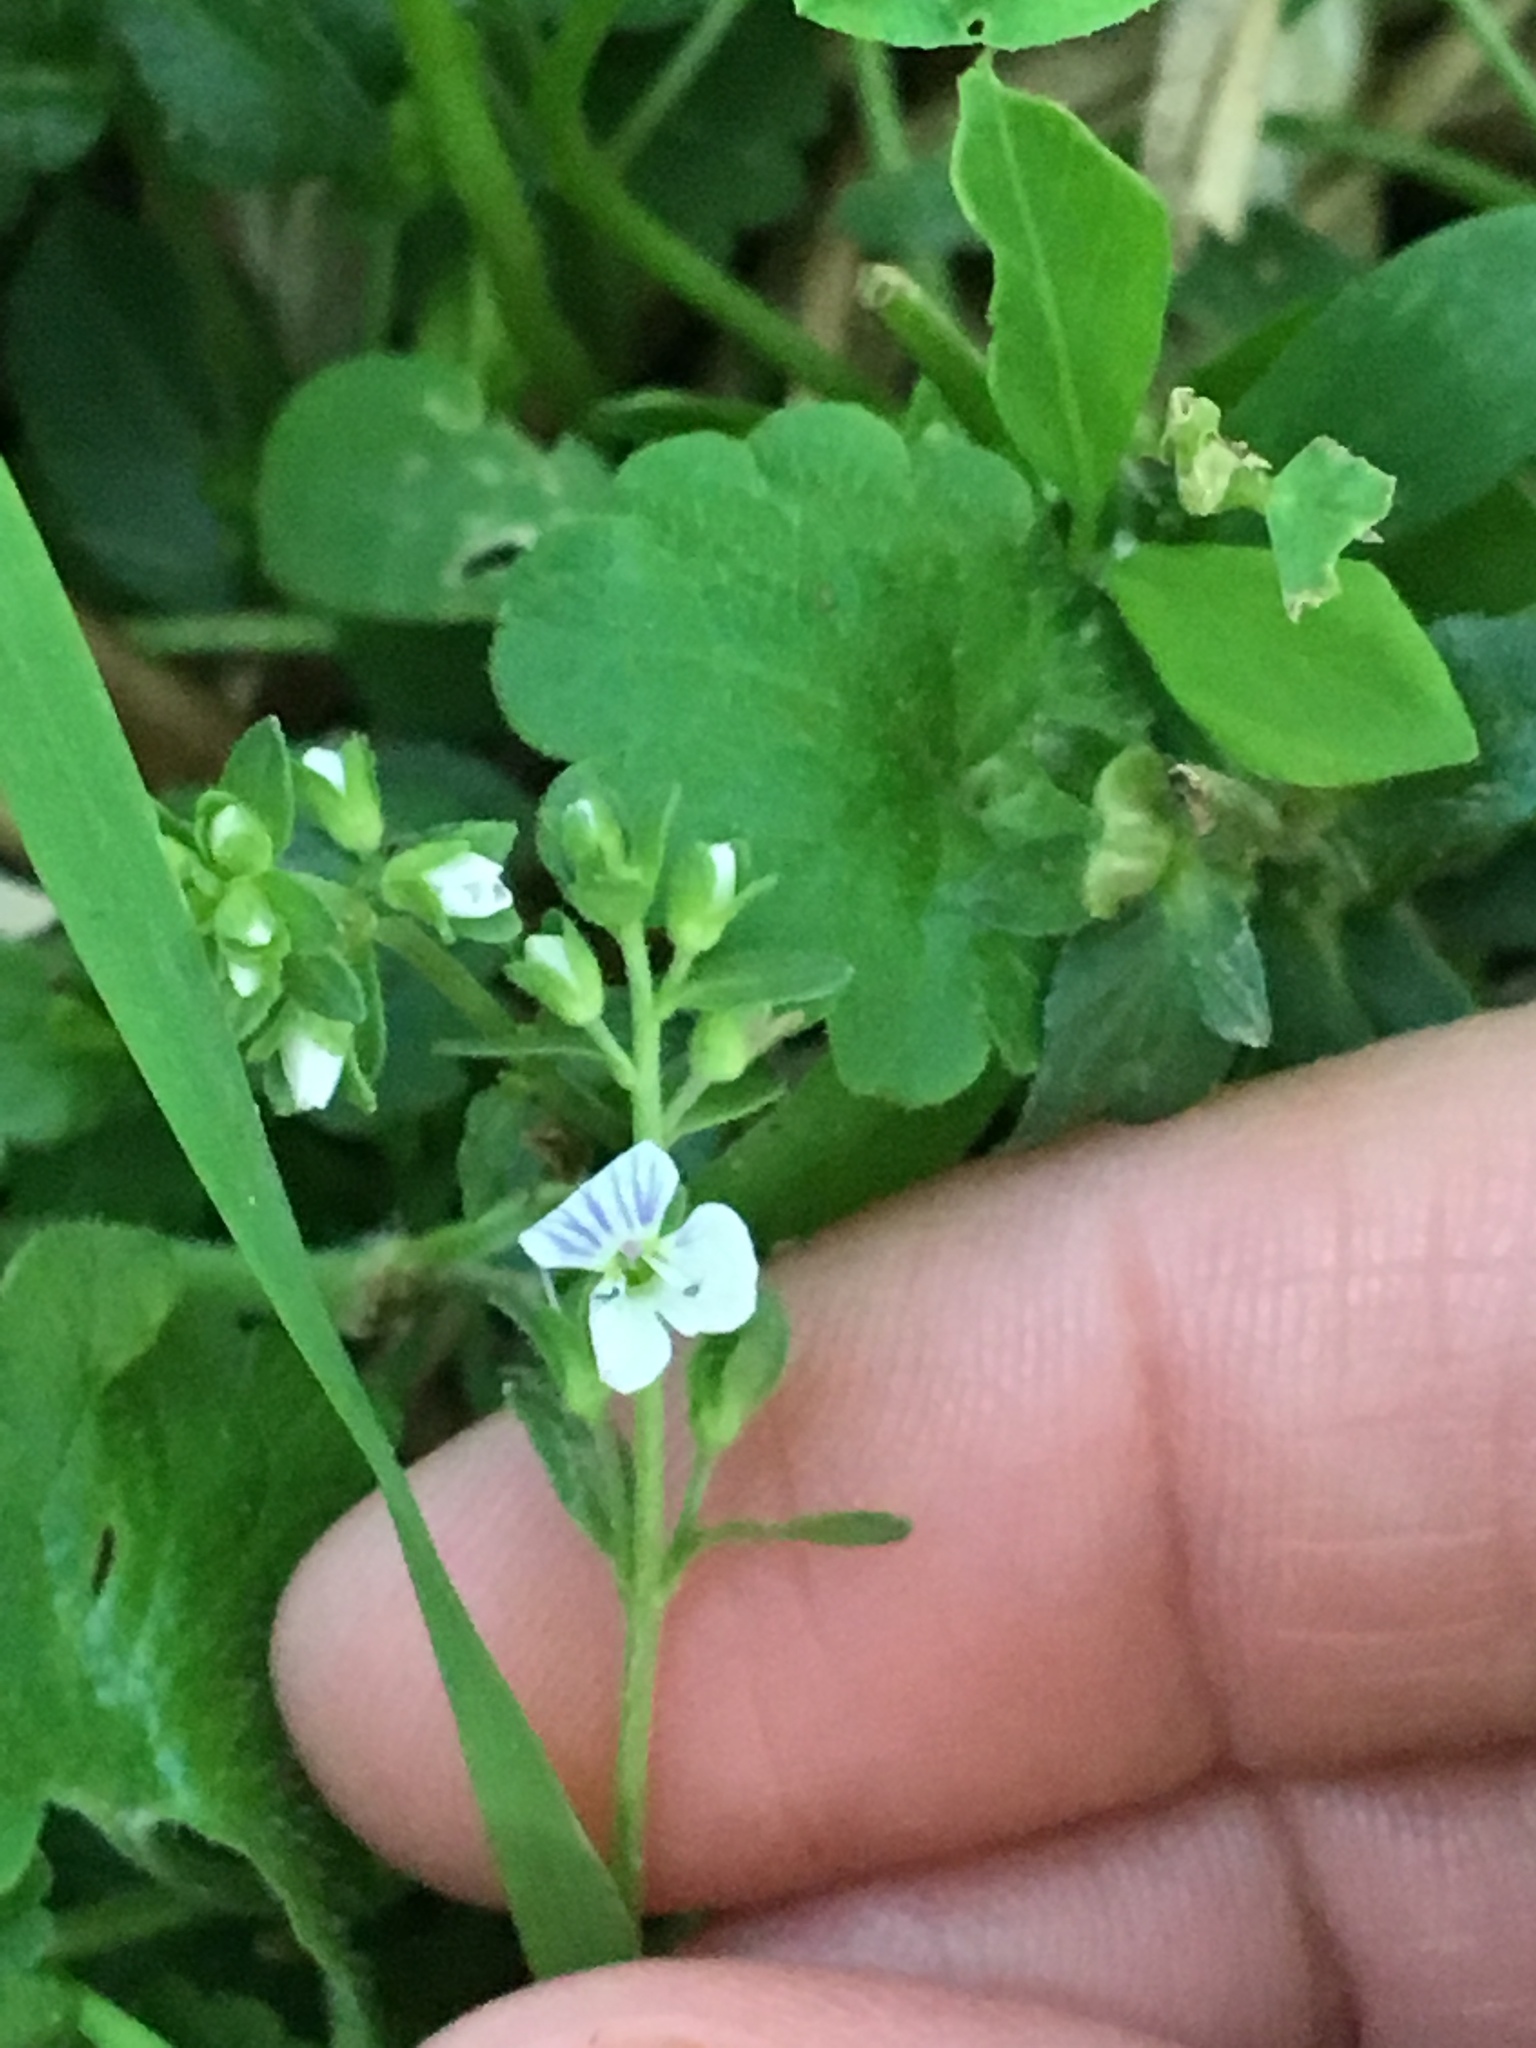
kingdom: Plantae
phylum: Tracheophyta
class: Magnoliopsida
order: Lamiales
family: Plantaginaceae
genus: Veronica
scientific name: Veronica serpyllifolia
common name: Thyme-leaved speedwell
